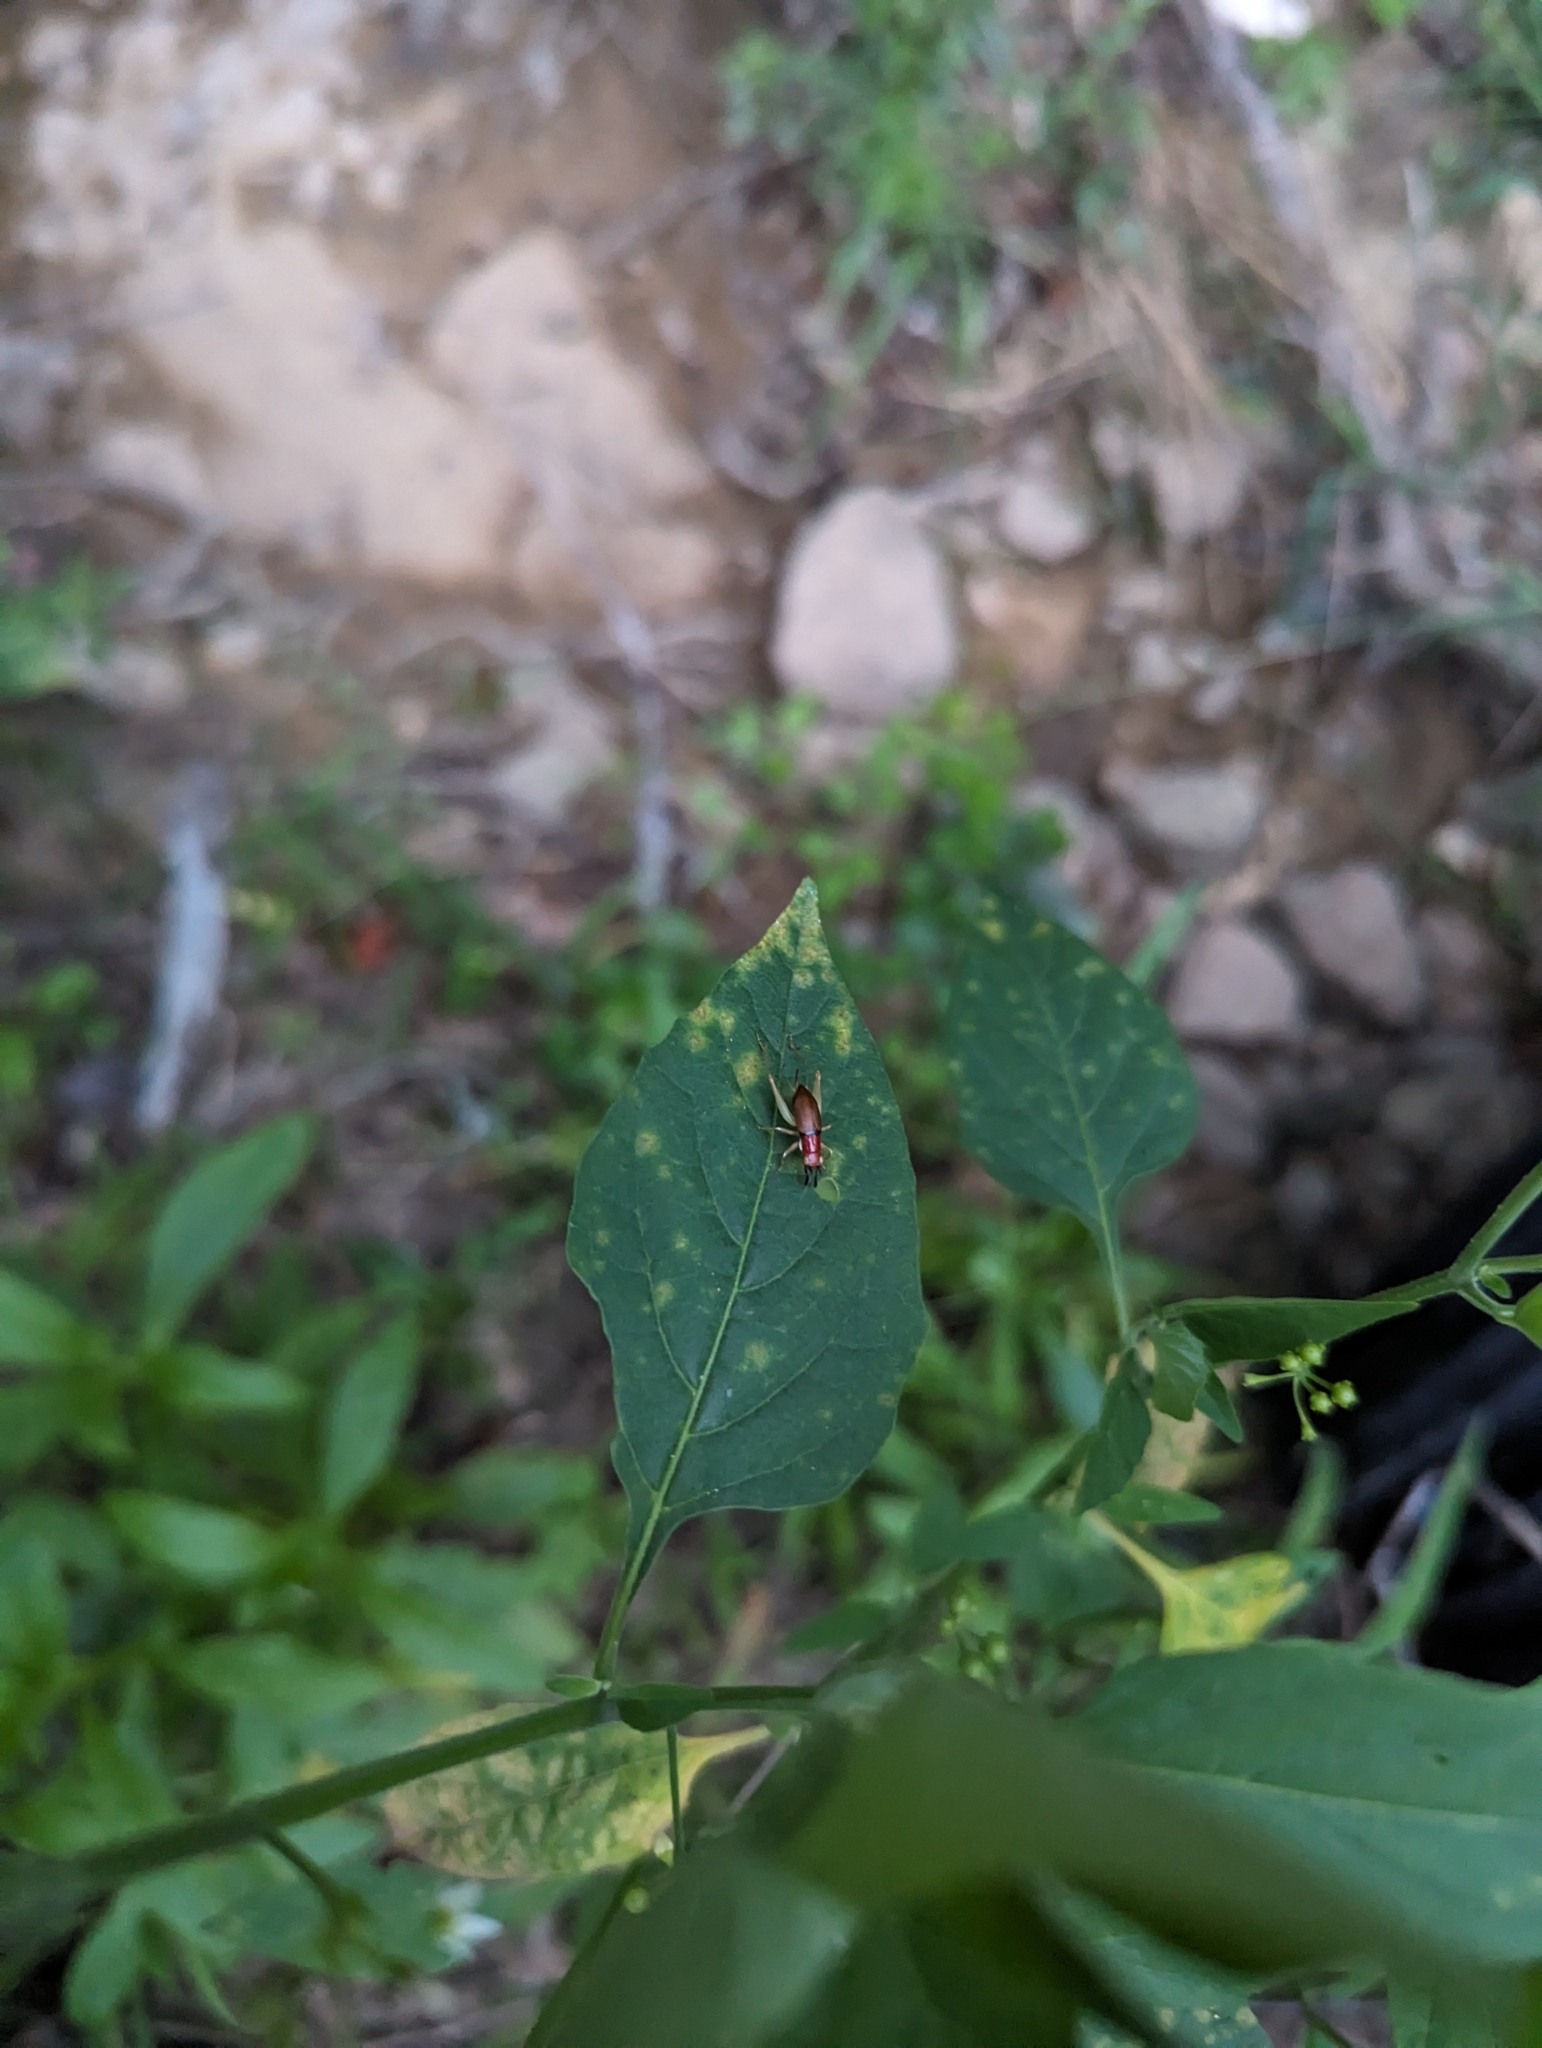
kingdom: Animalia
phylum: Arthropoda
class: Insecta
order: Orthoptera
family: Trigonidiidae
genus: Phyllopalpus
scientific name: Phyllopalpus pulchellus
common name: Handsome trig
